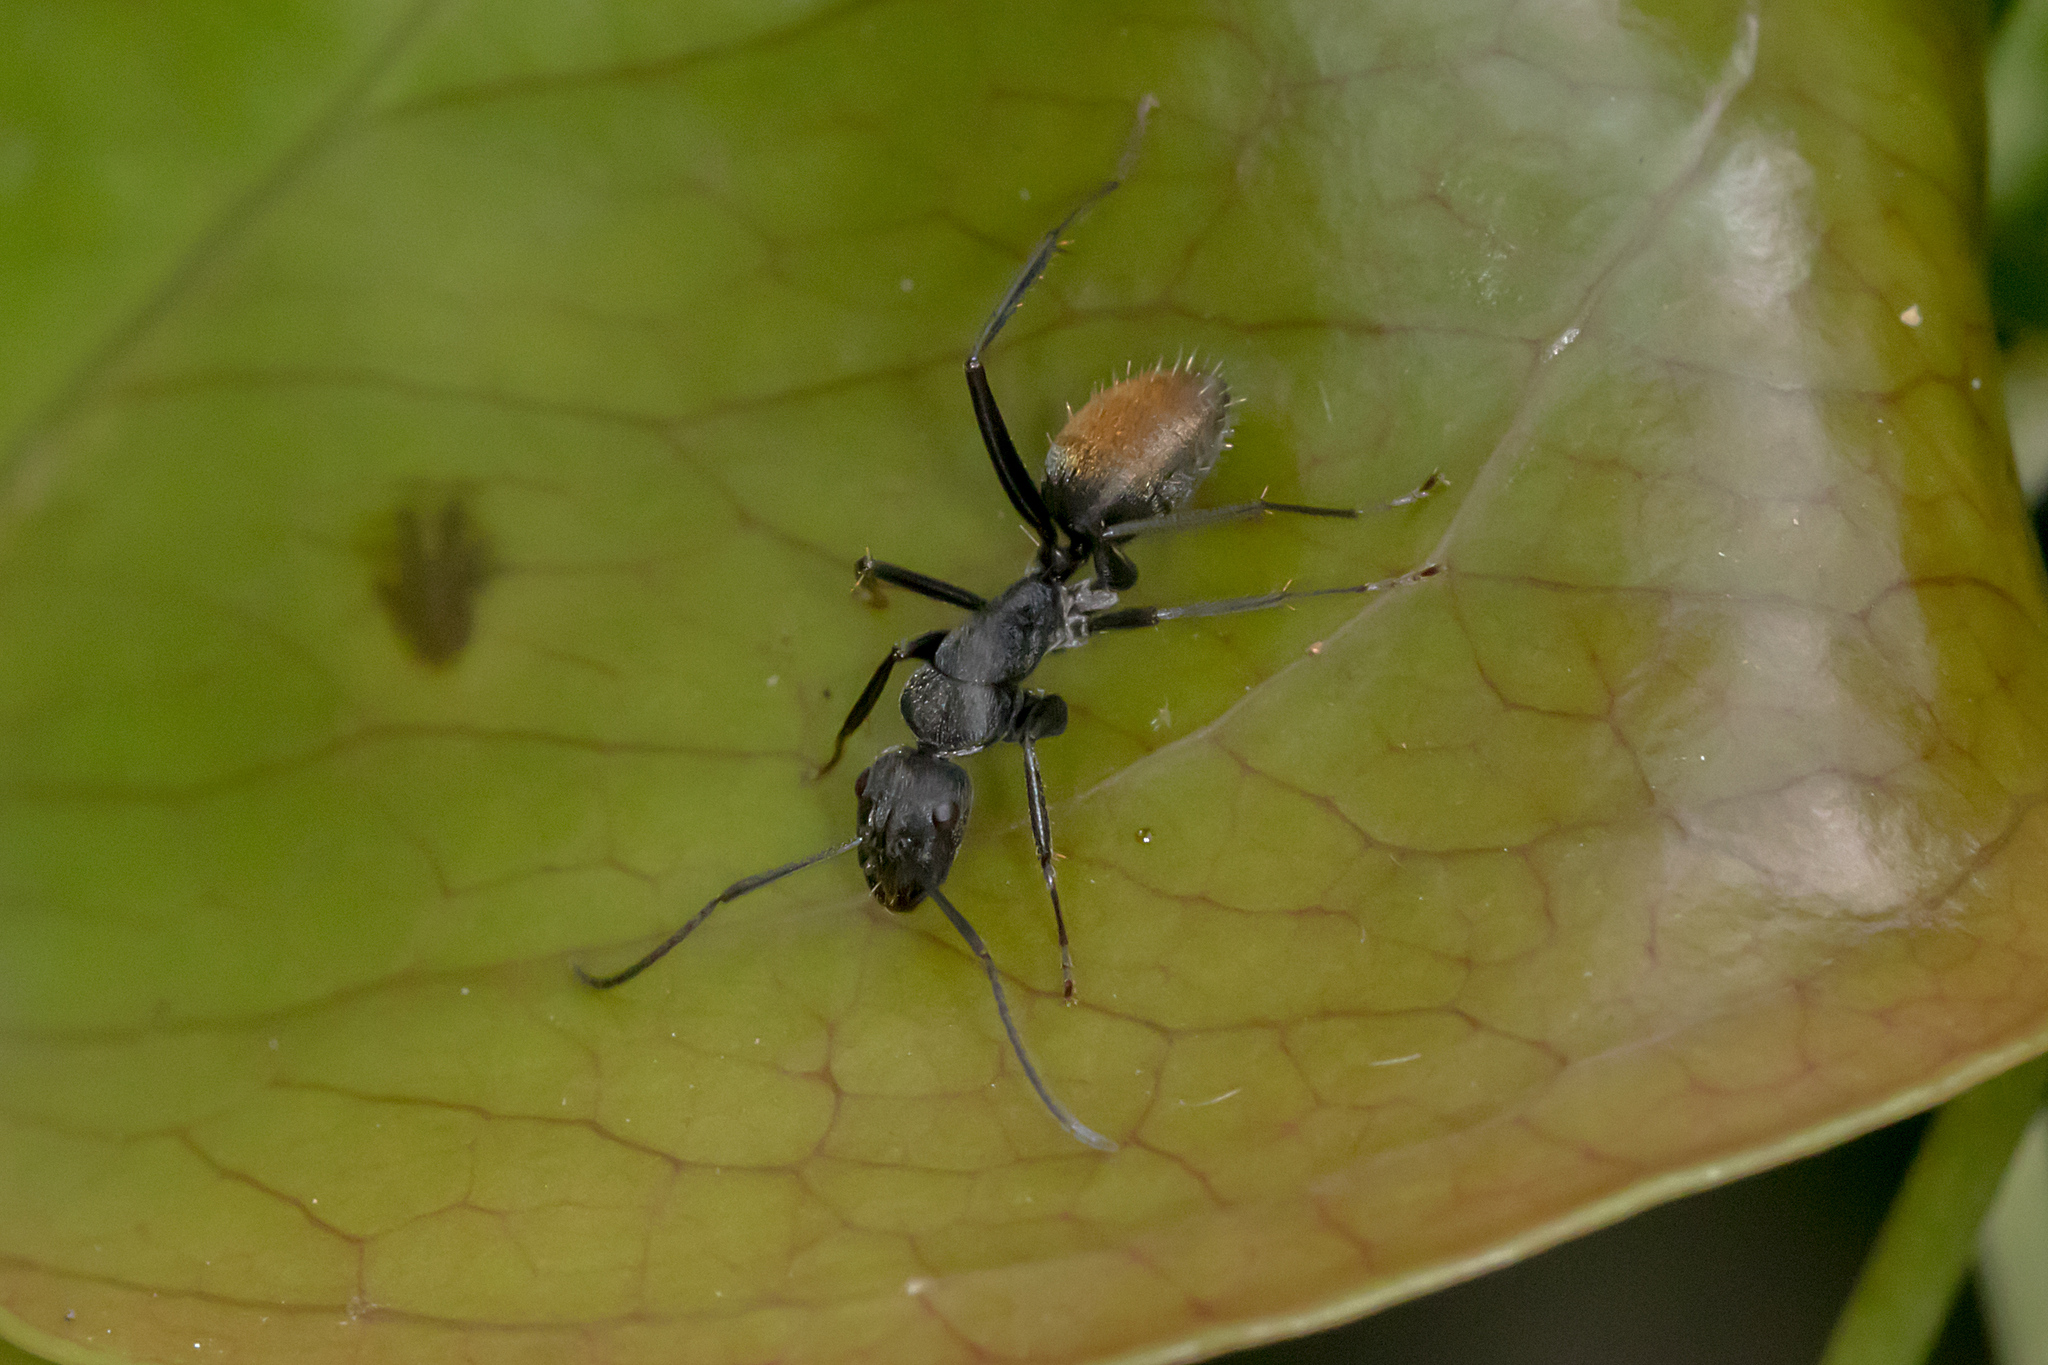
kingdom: Animalia
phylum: Arthropoda
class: Insecta
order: Hymenoptera
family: Formicidae
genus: Camponotus
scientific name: Camponotus aeneopilosus
